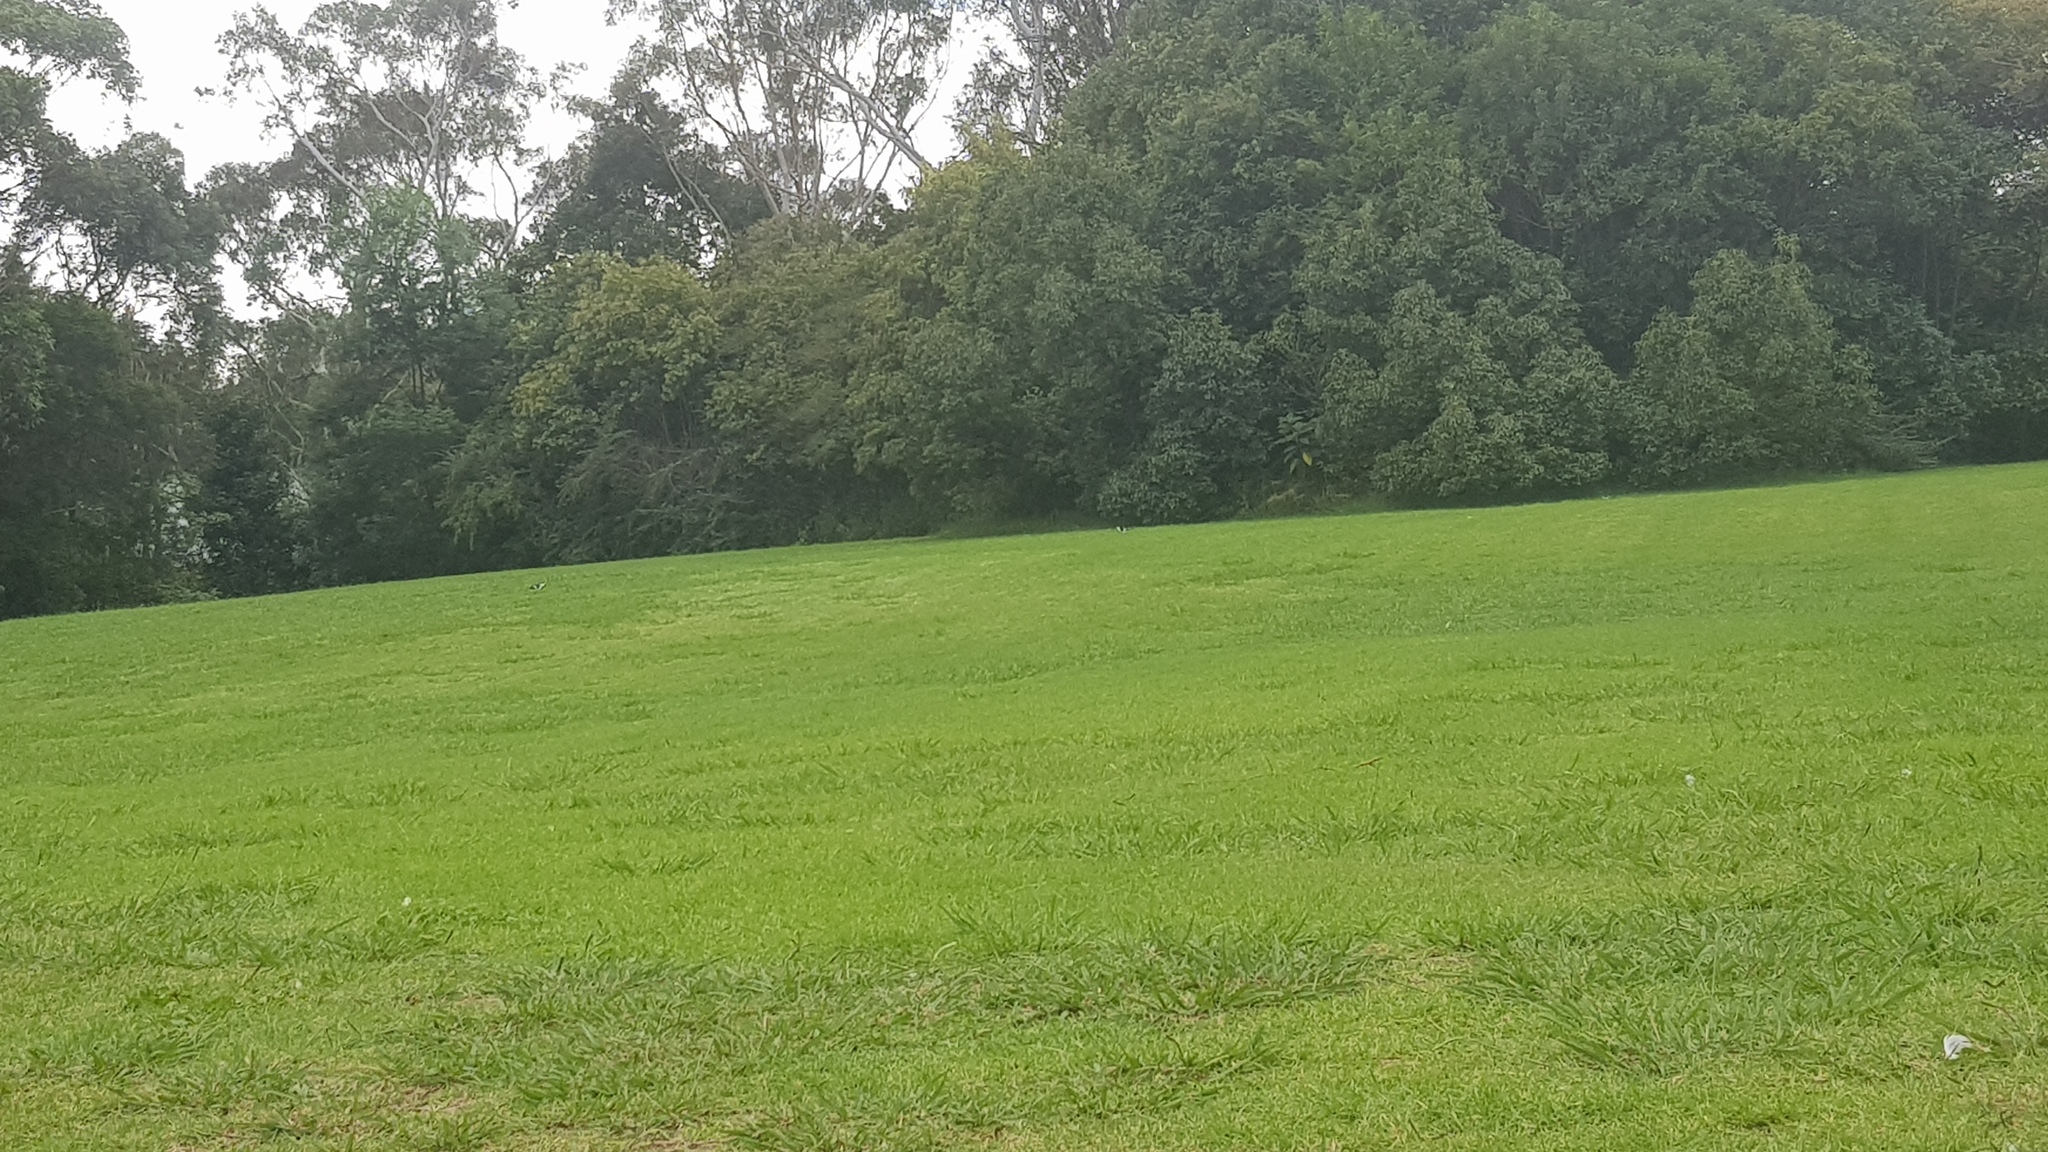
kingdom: Animalia
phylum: Chordata
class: Aves
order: Passeriformes
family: Monarchidae
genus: Grallina
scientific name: Grallina cyanoleuca
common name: Magpie-lark
